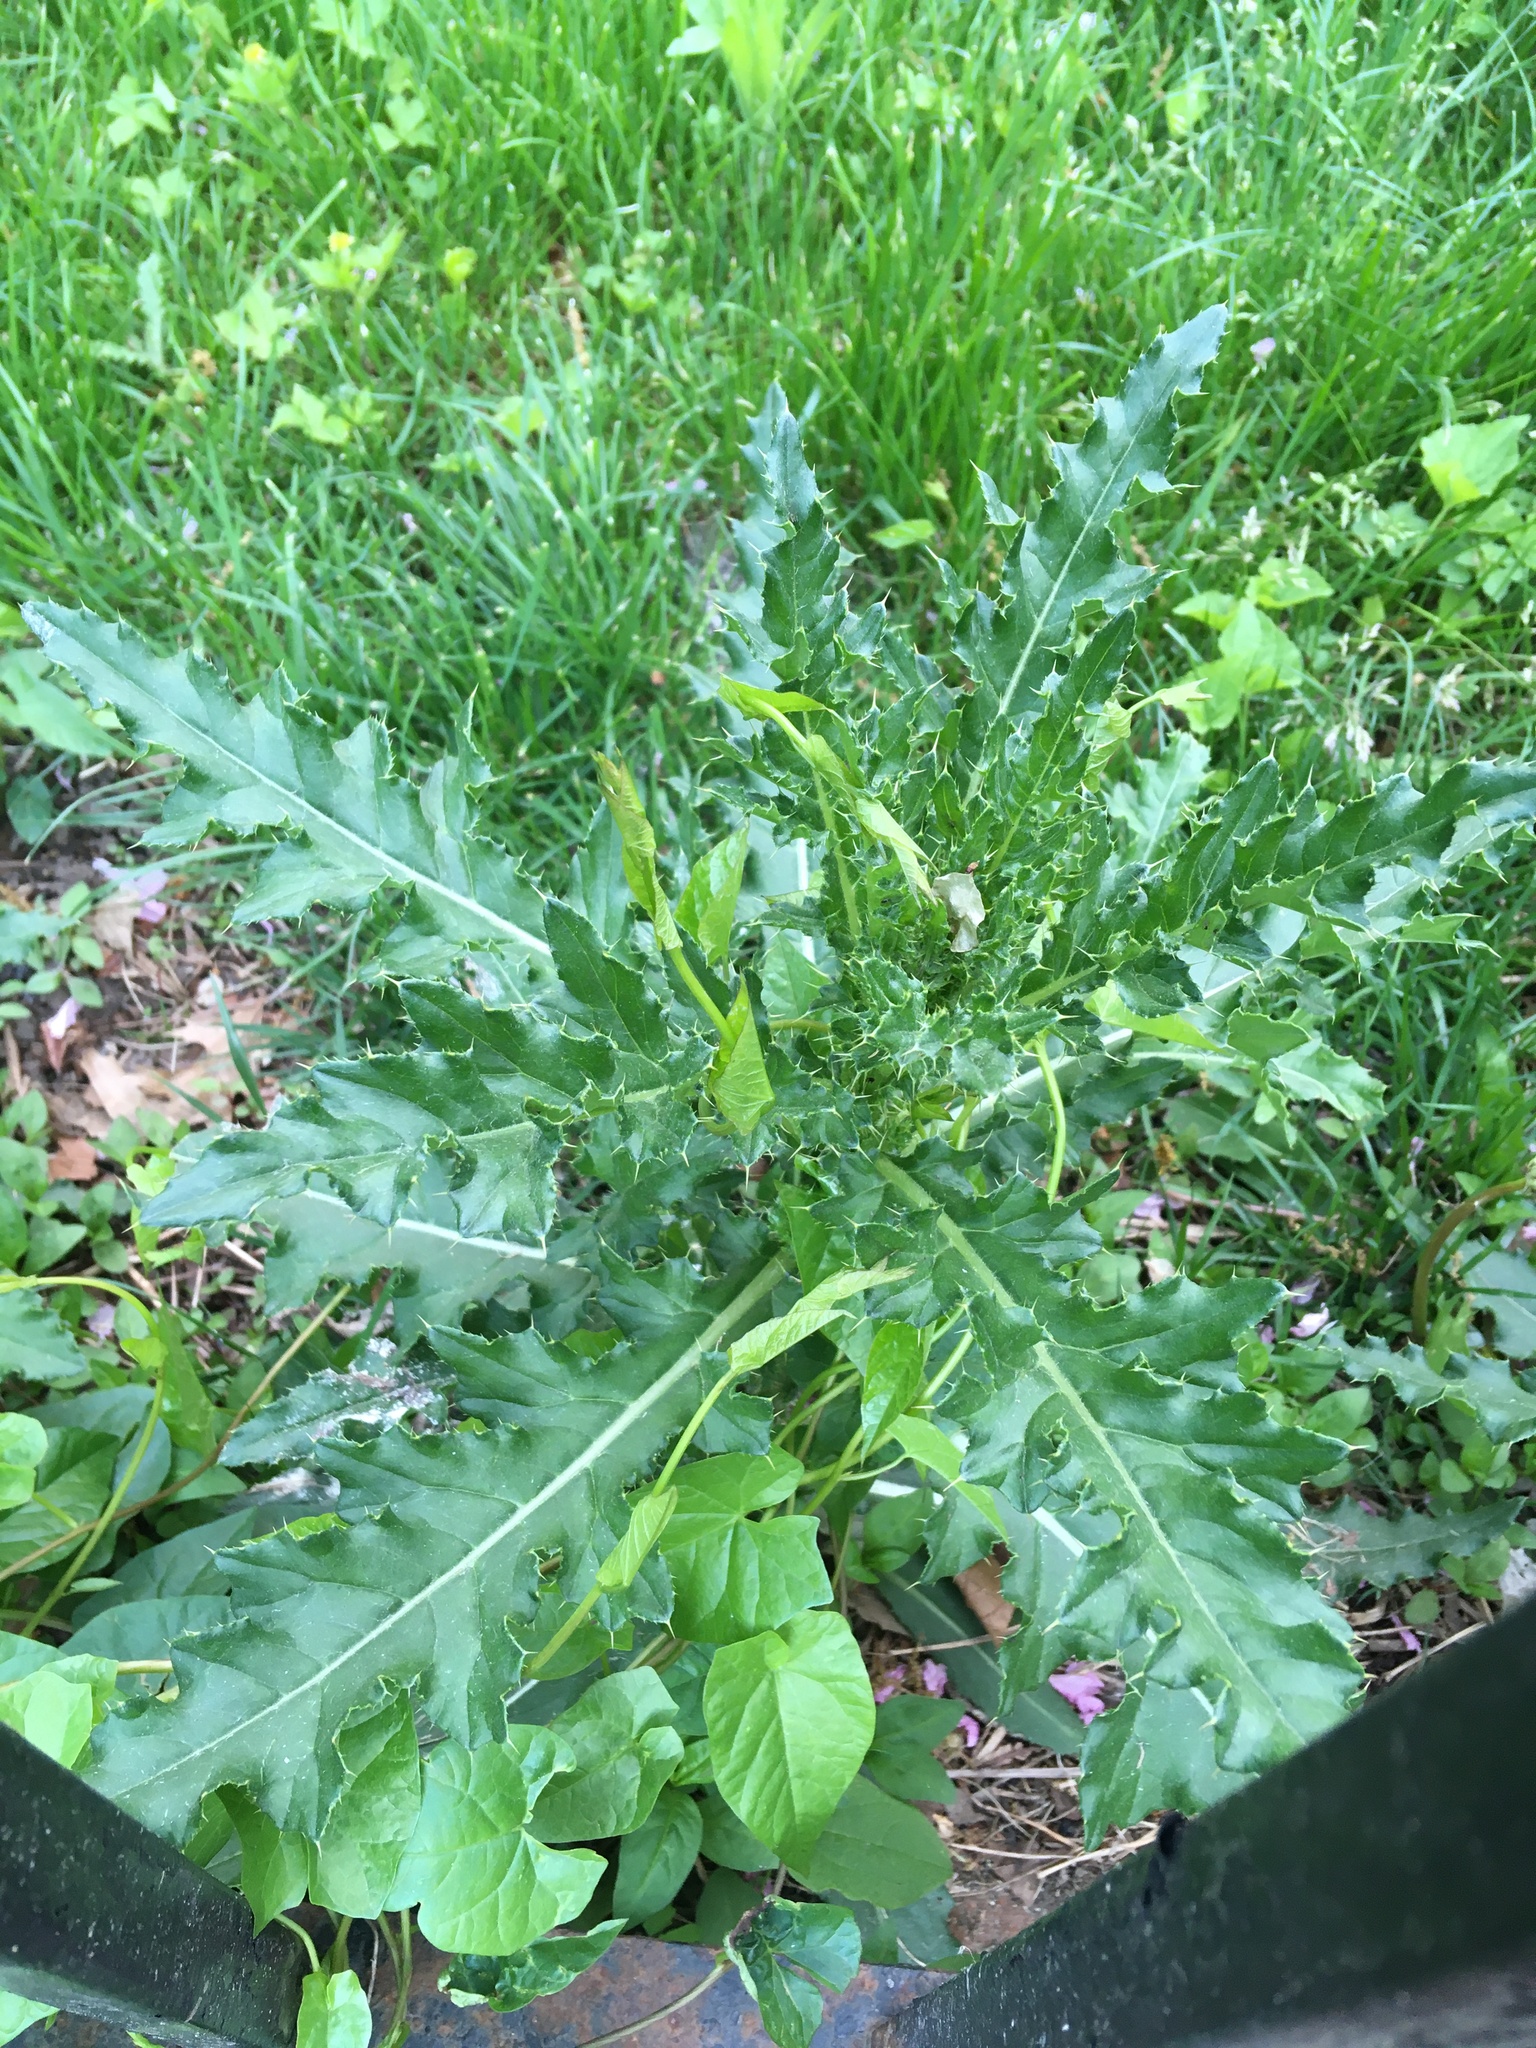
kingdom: Plantae
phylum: Tracheophyta
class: Magnoliopsida
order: Asterales
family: Asteraceae
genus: Cirsium
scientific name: Cirsium arvense
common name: Creeping thistle
